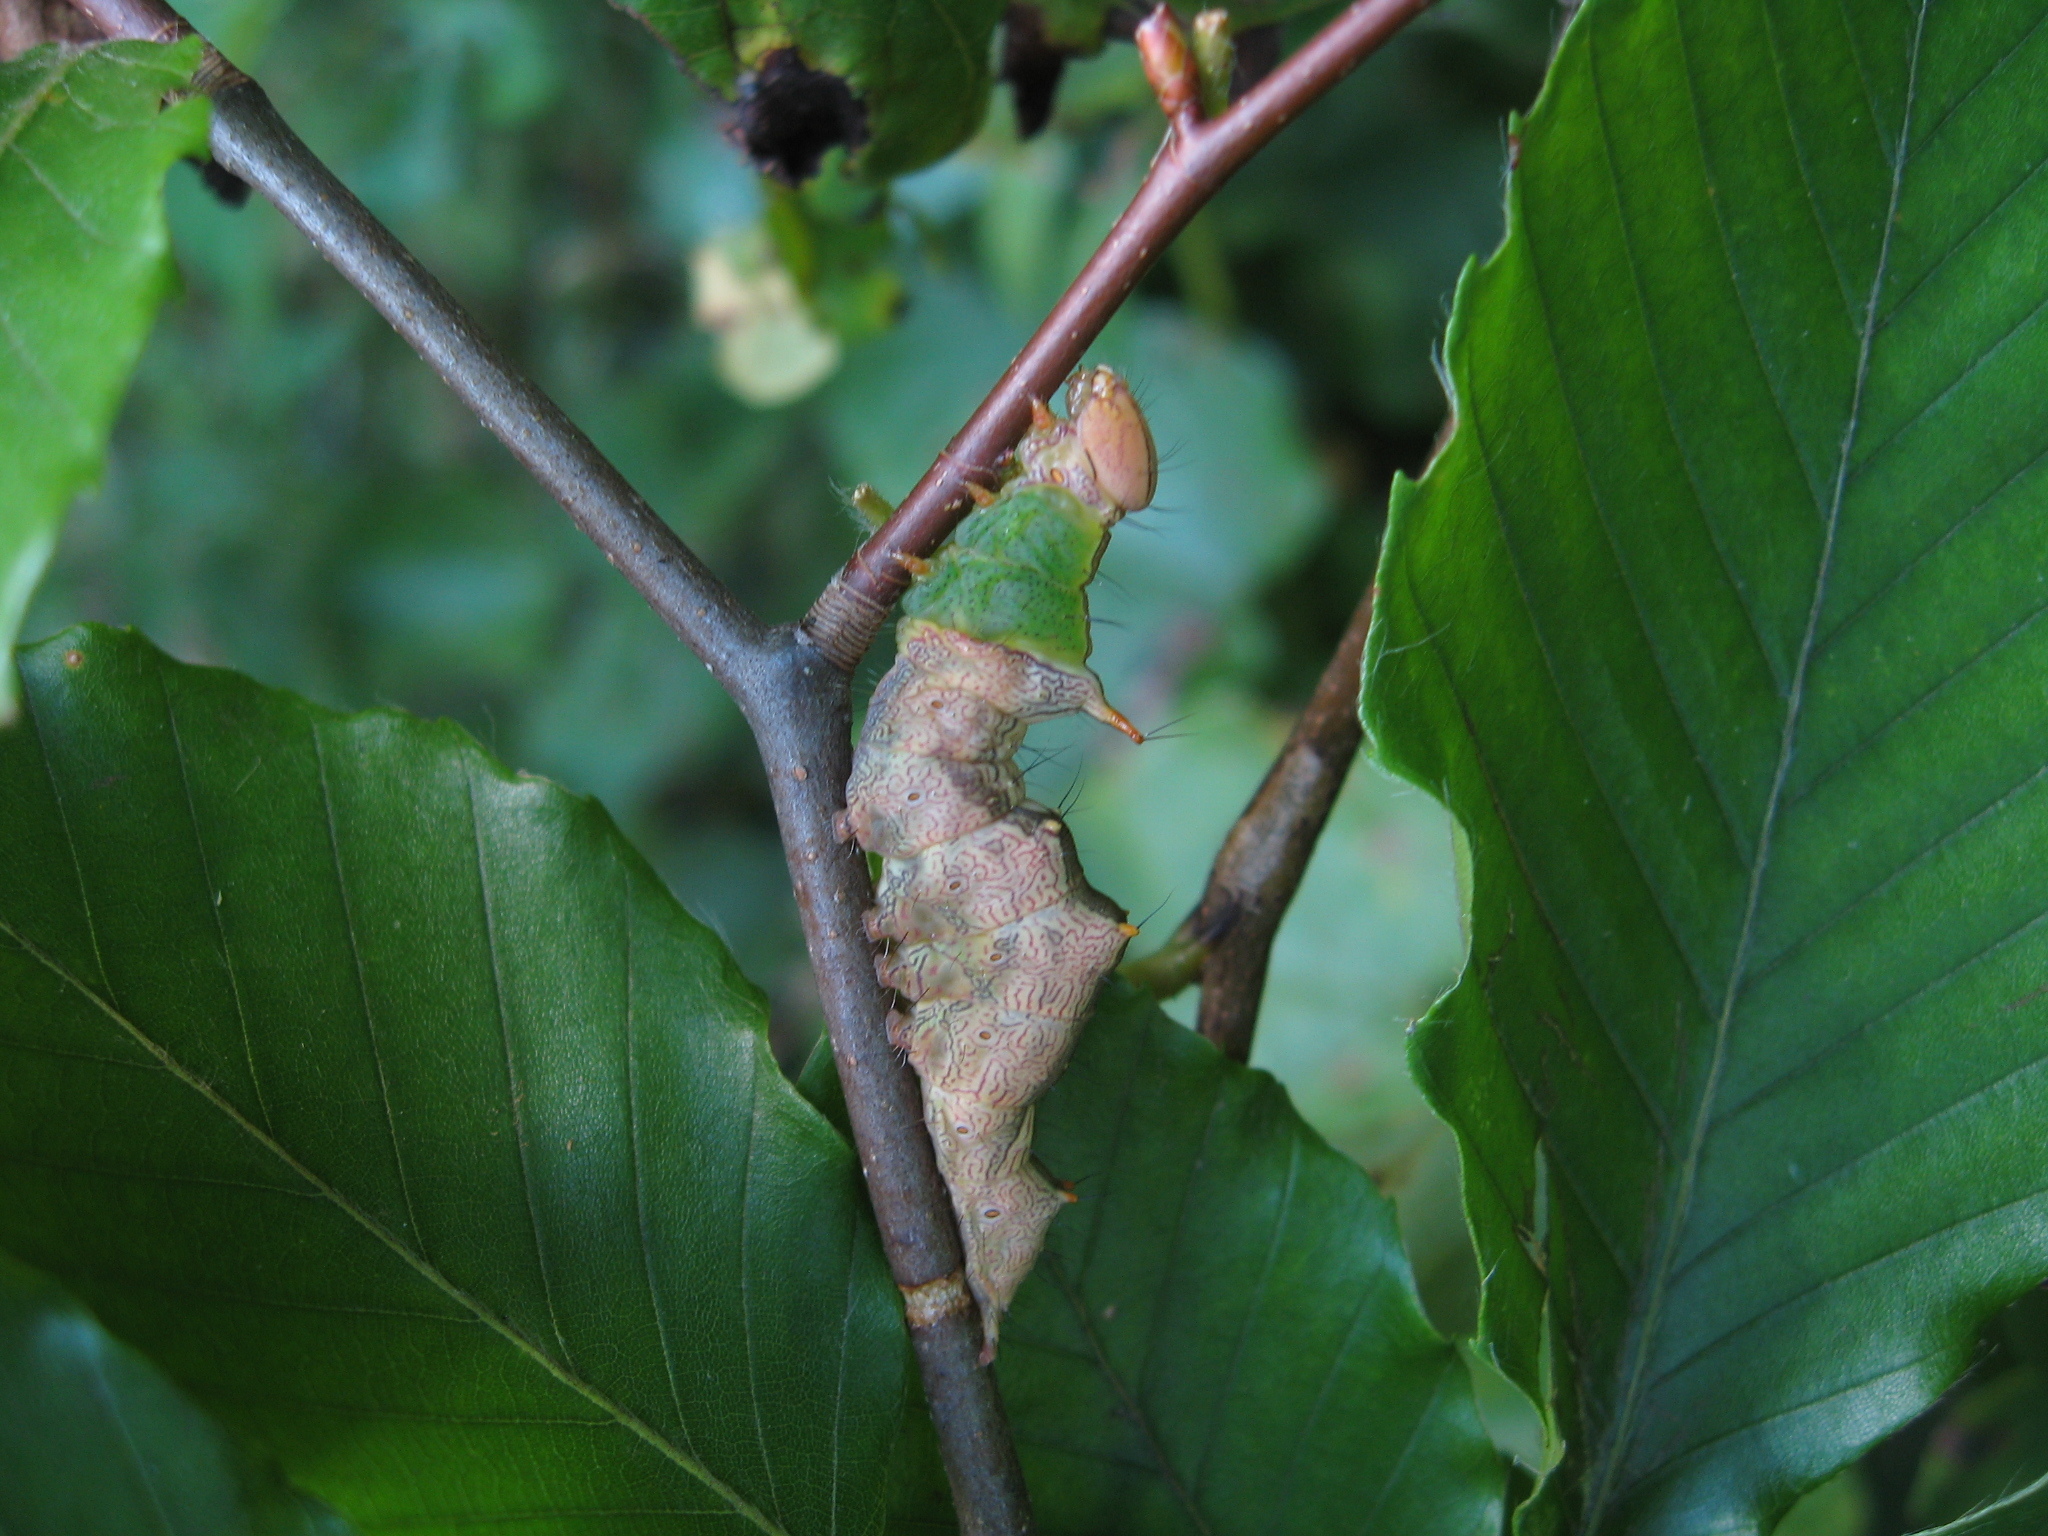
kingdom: Animalia
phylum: Arthropoda
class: Insecta
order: Lepidoptera
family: Notodontidae
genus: Schizura
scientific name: Schizura ipomaeae
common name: Morning-glory prominent
